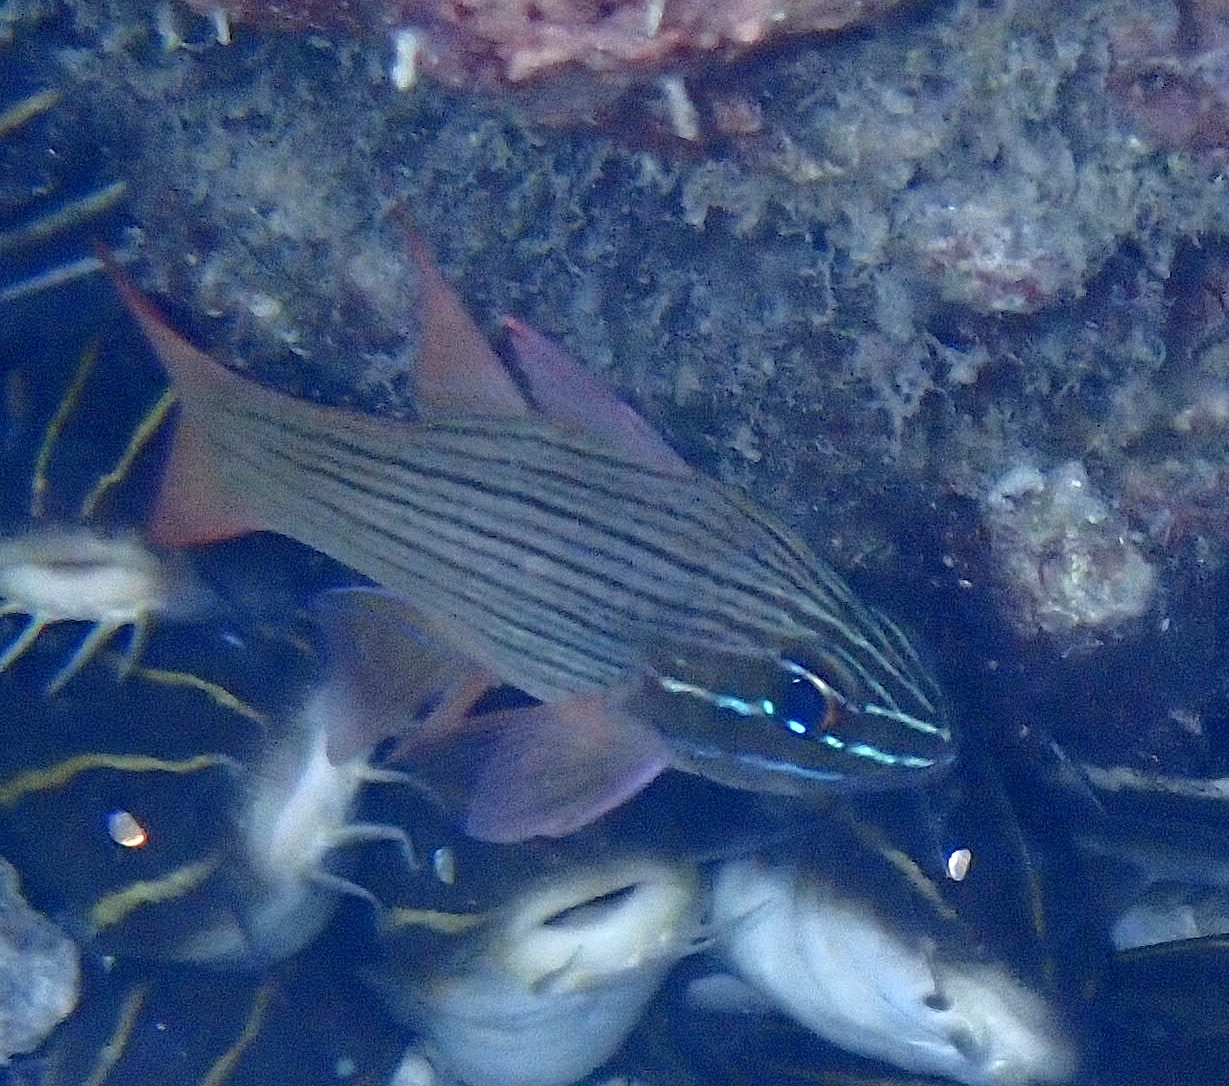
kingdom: Animalia
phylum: Chordata
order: Perciformes
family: Apogonidae
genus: Ostorhinchus
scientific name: Ostorhinchus multilineatus
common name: Many-lined cardinalfish
